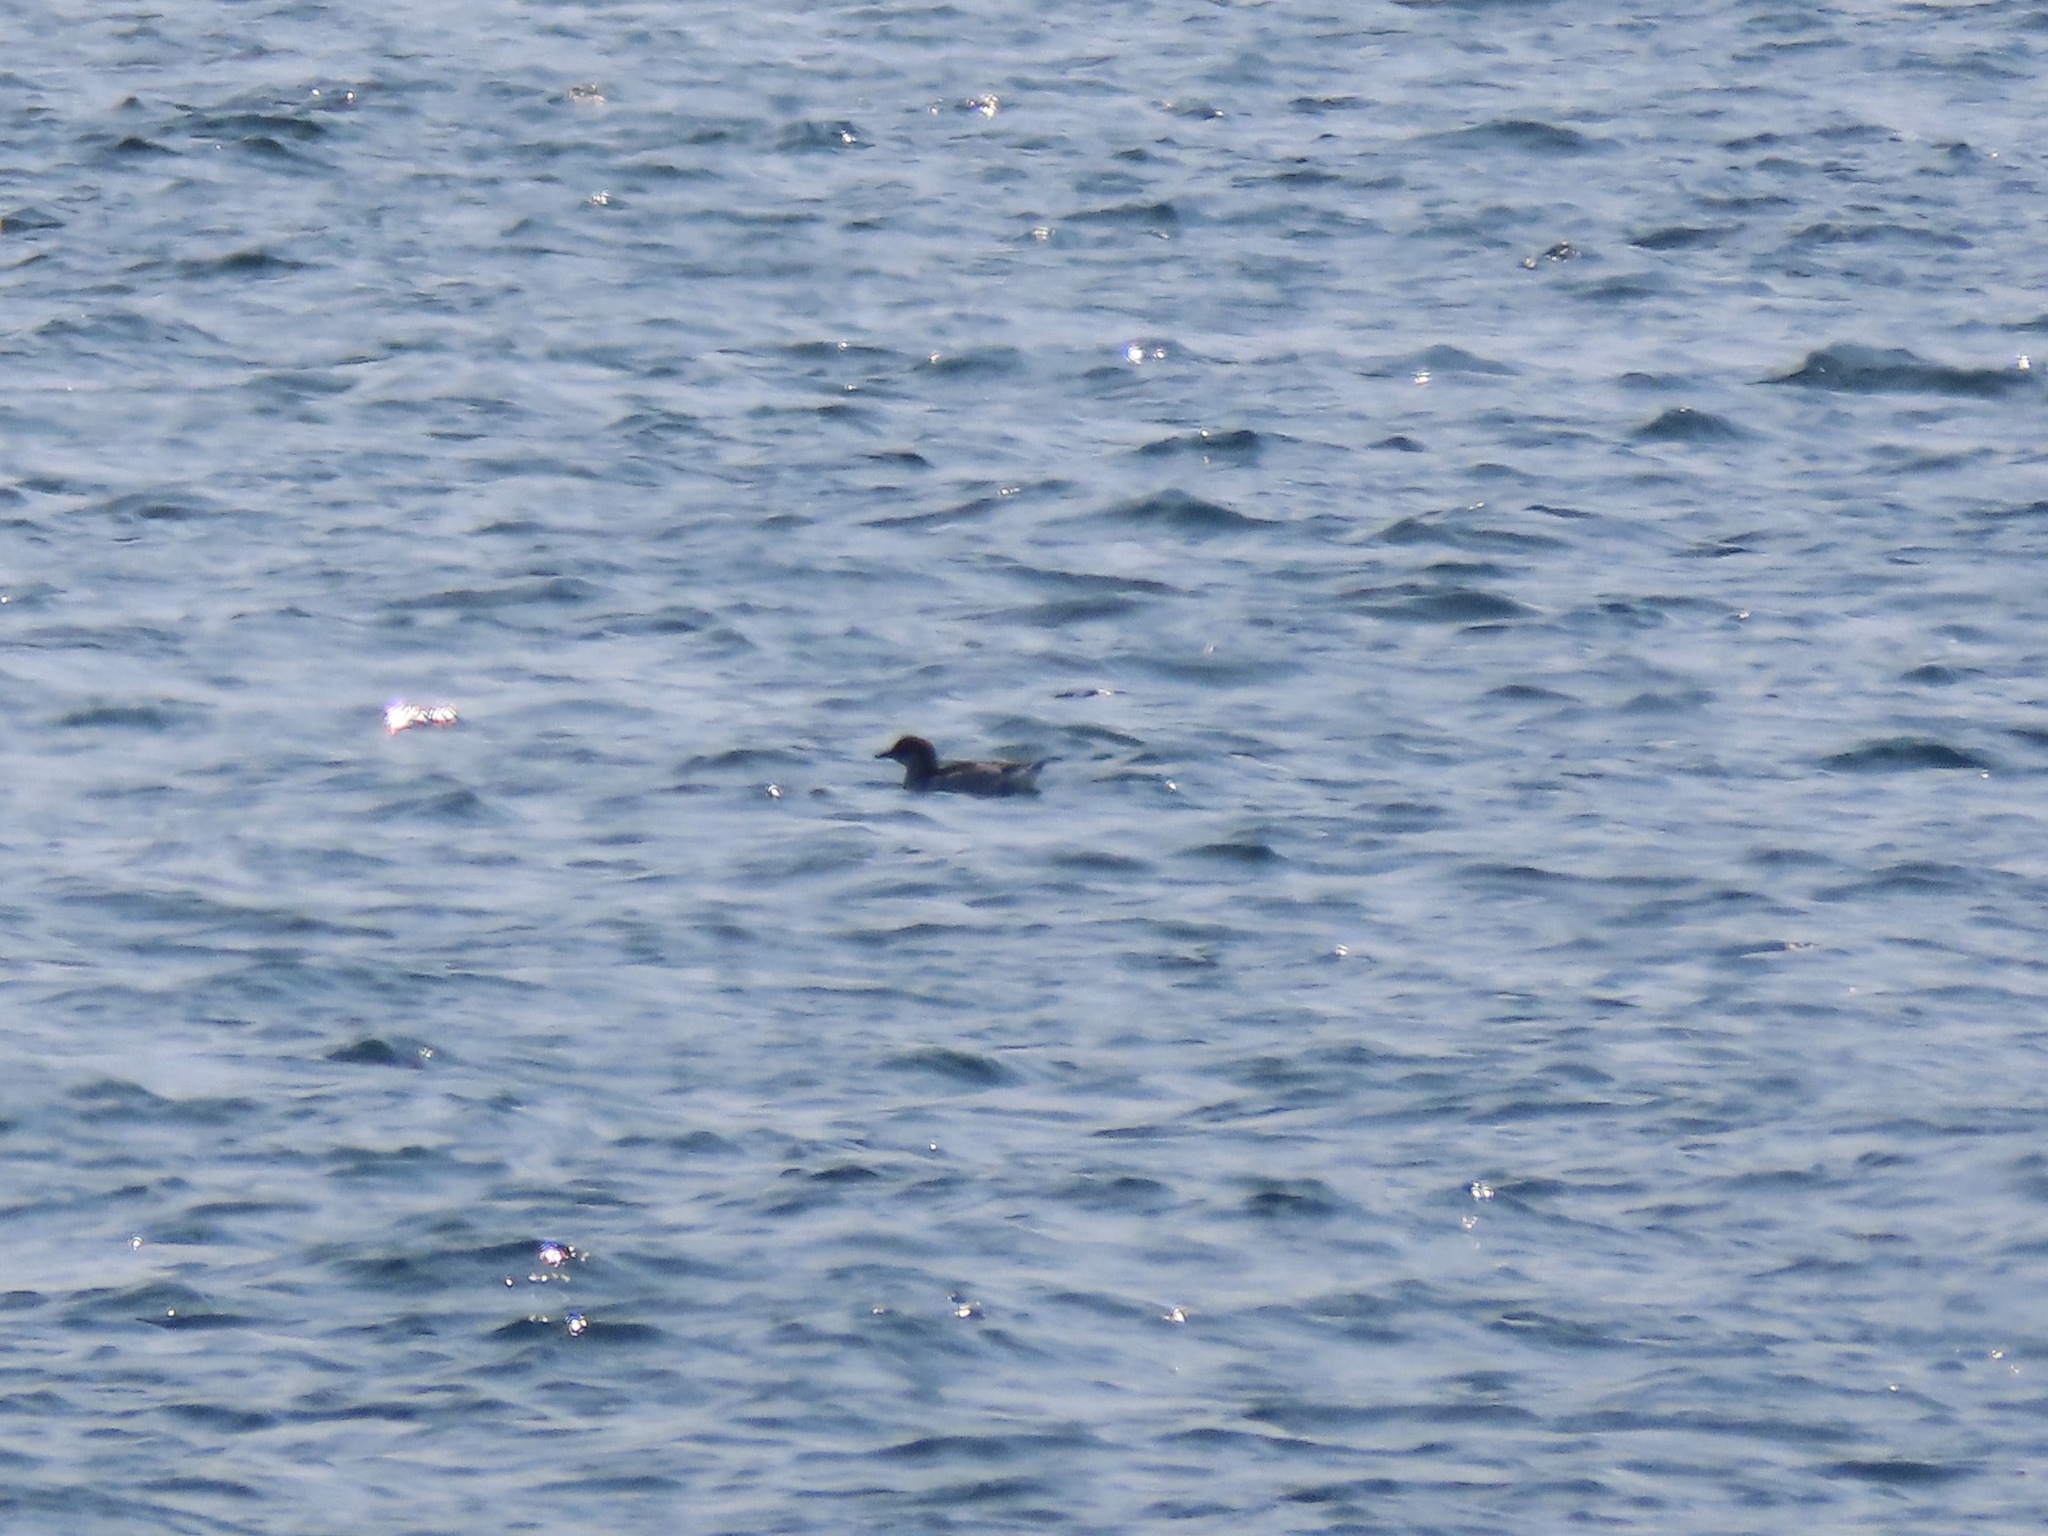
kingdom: Animalia
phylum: Chordata
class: Aves
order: Charadriiformes
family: Alcidae
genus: Cepphus
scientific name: Cepphus columba
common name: Pigeon guillemot
